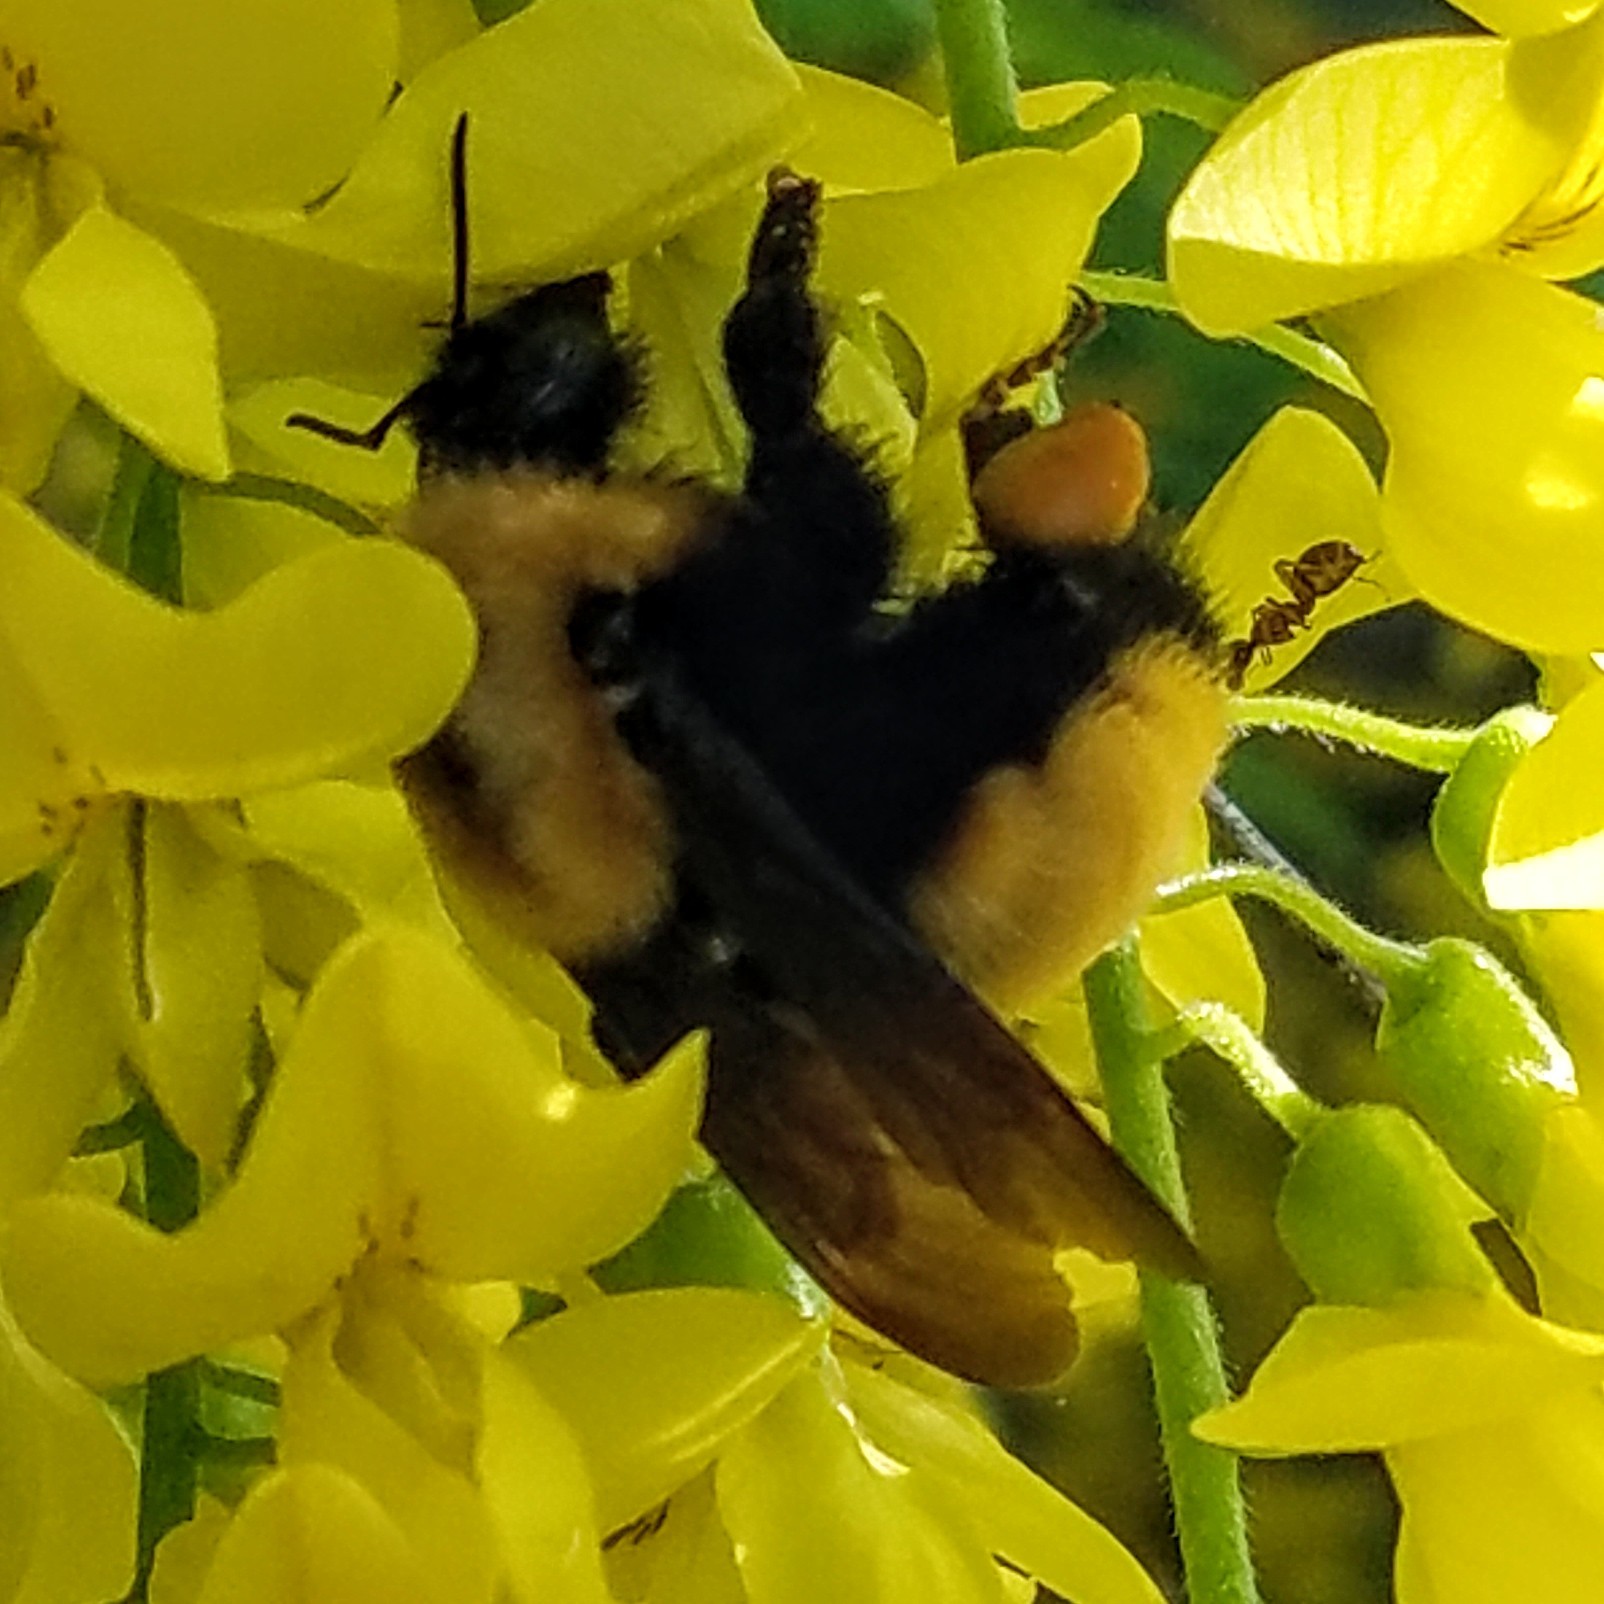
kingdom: Animalia
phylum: Arthropoda
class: Insecta
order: Hymenoptera
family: Apidae
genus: Bombus
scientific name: Bombus nevadensis
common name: Nevada bumble bee
